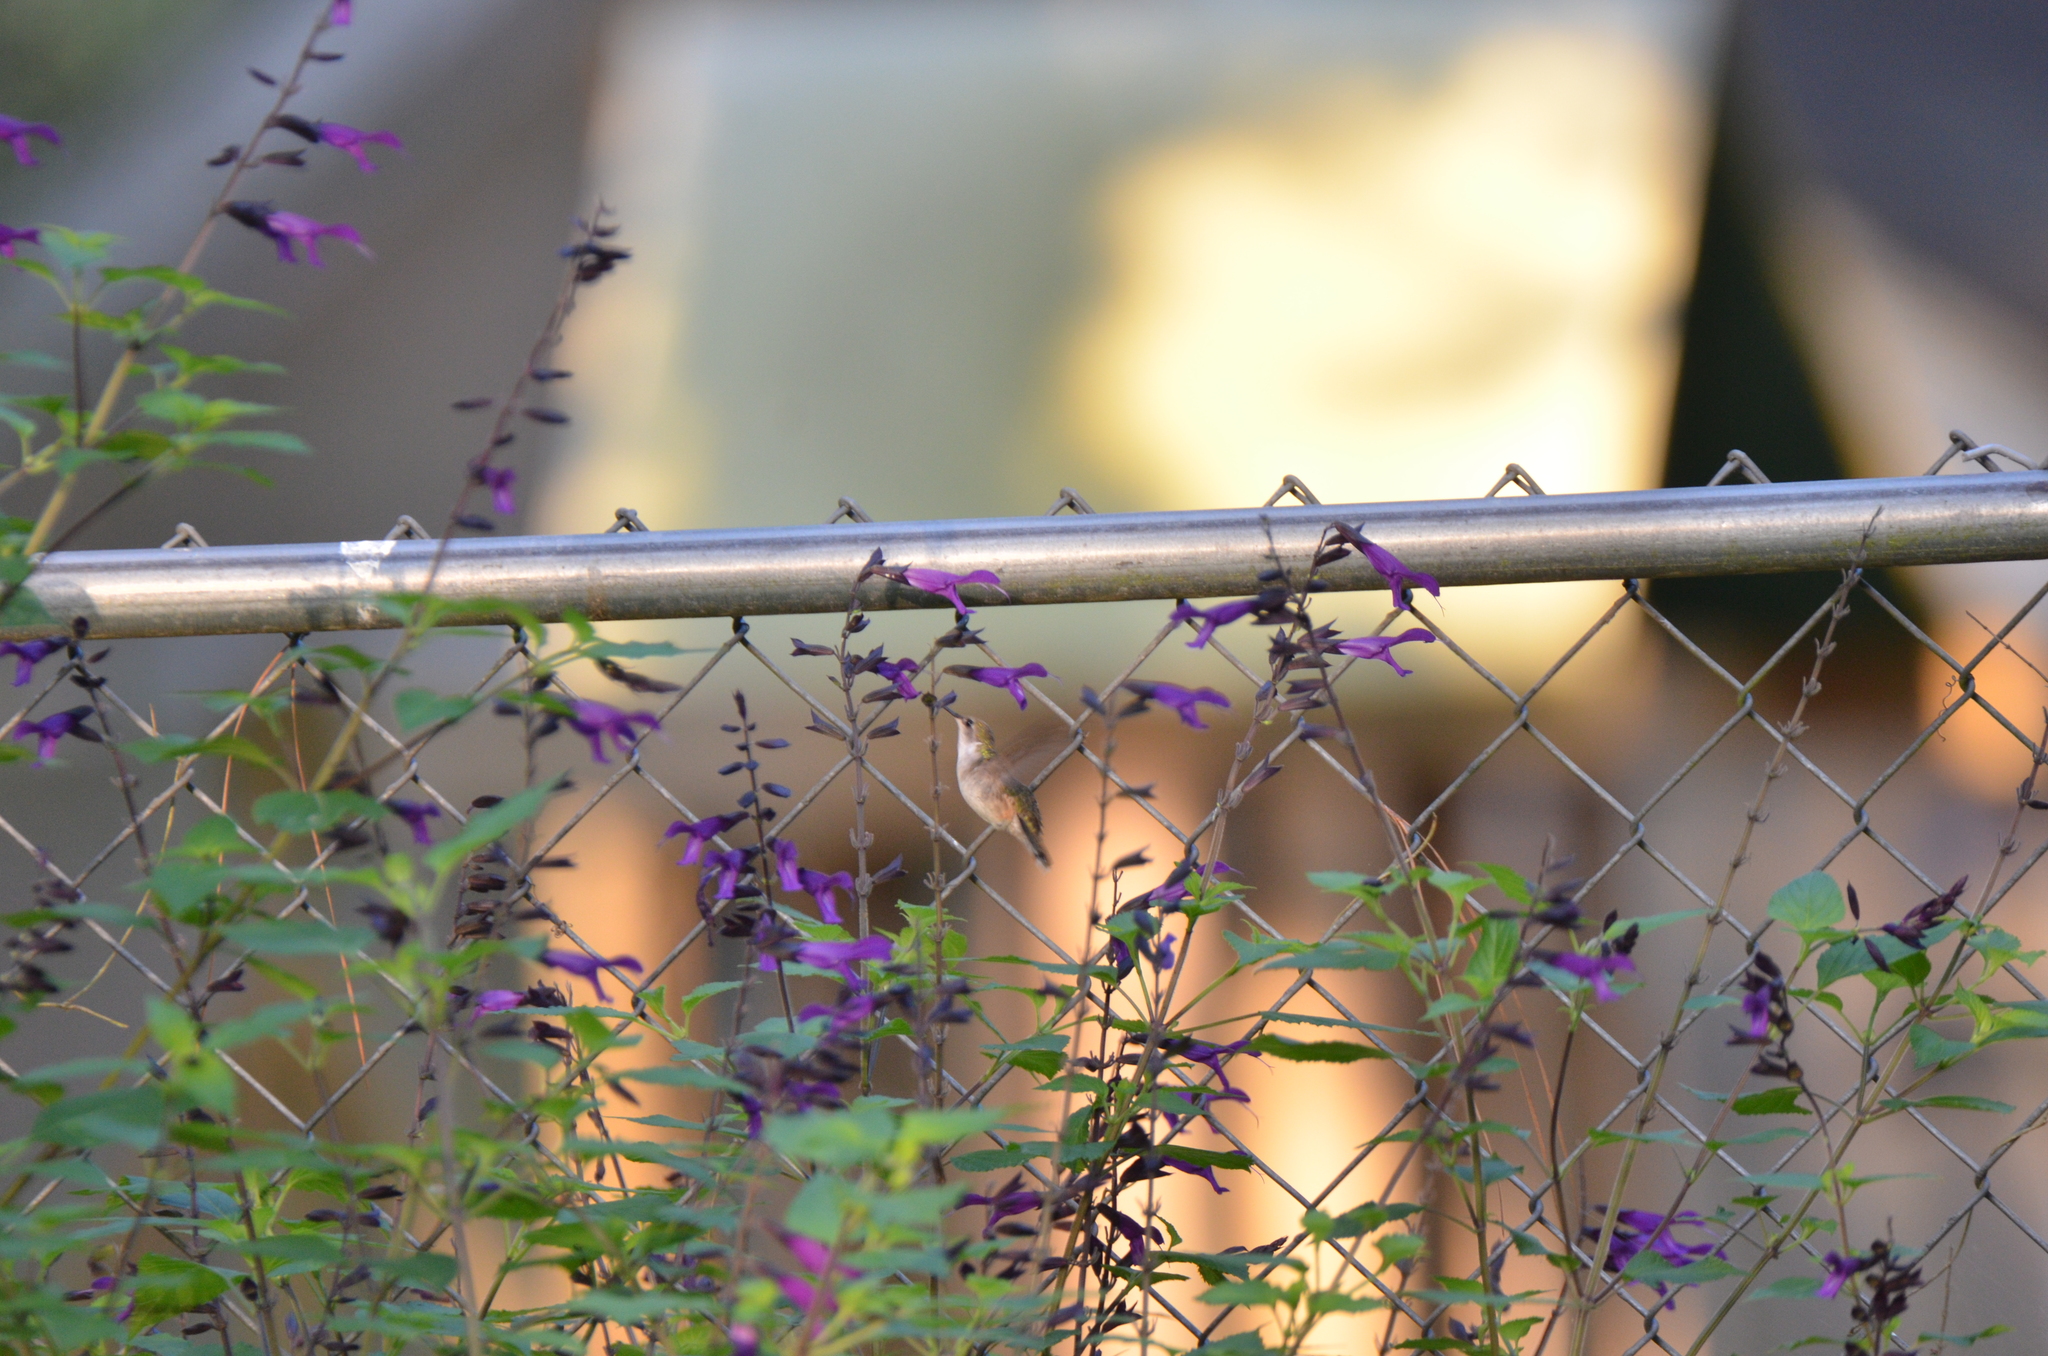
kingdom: Animalia
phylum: Chordata
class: Aves
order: Apodiformes
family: Trochilidae
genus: Archilochus
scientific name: Archilochus colubris
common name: Ruby-throated hummingbird
